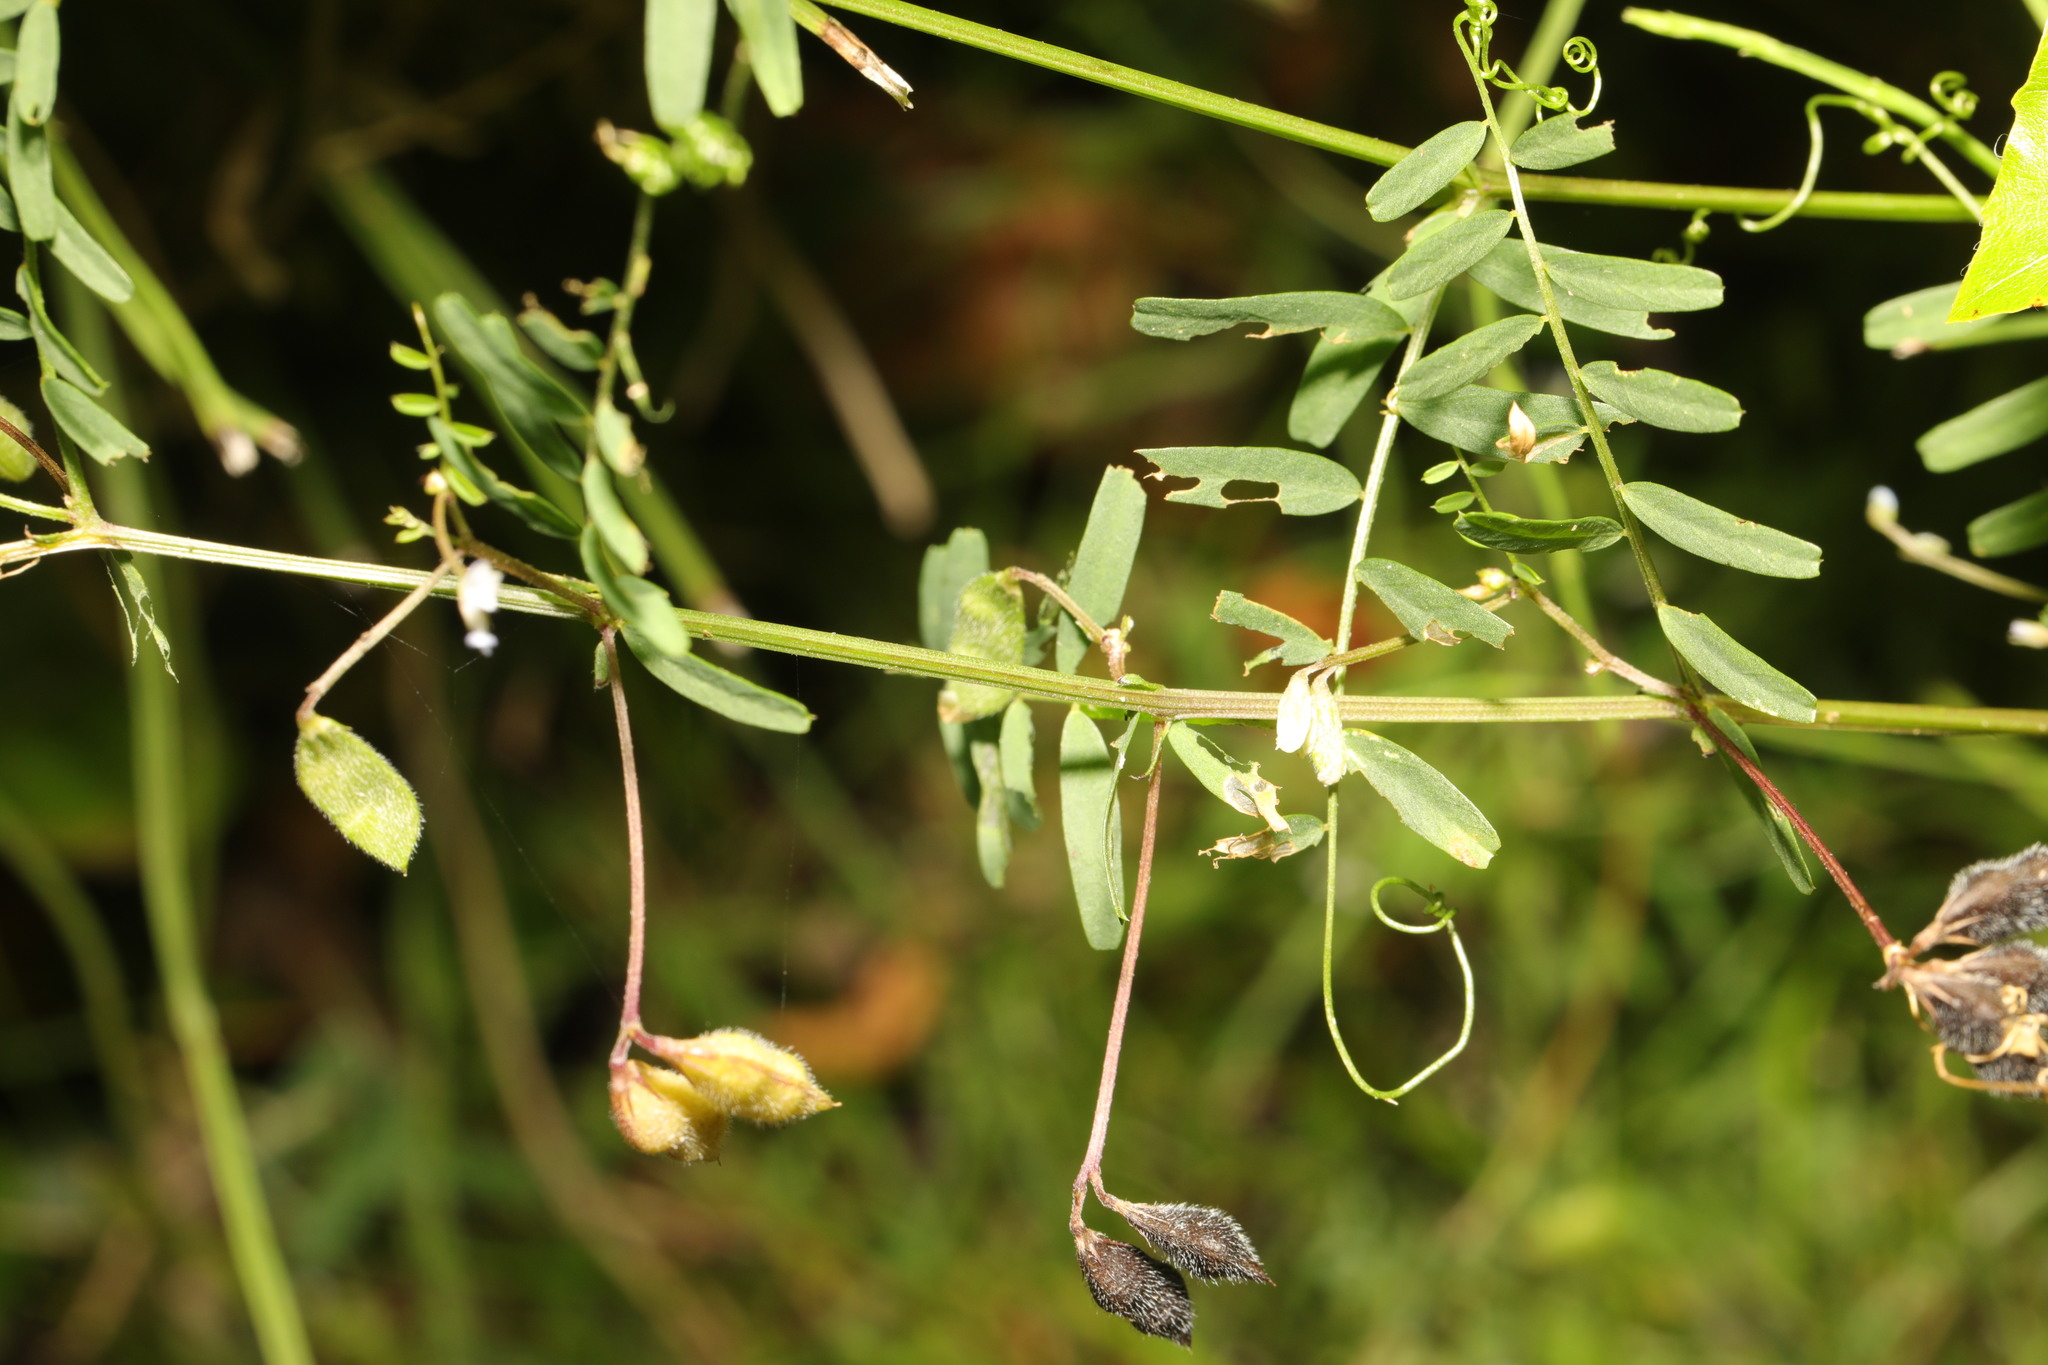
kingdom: Plantae
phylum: Tracheophyta
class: Magnoliopsida
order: Fabales
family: Fabaceae
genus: Vicia
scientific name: Vicia hirsuta
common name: Tiny vetch
